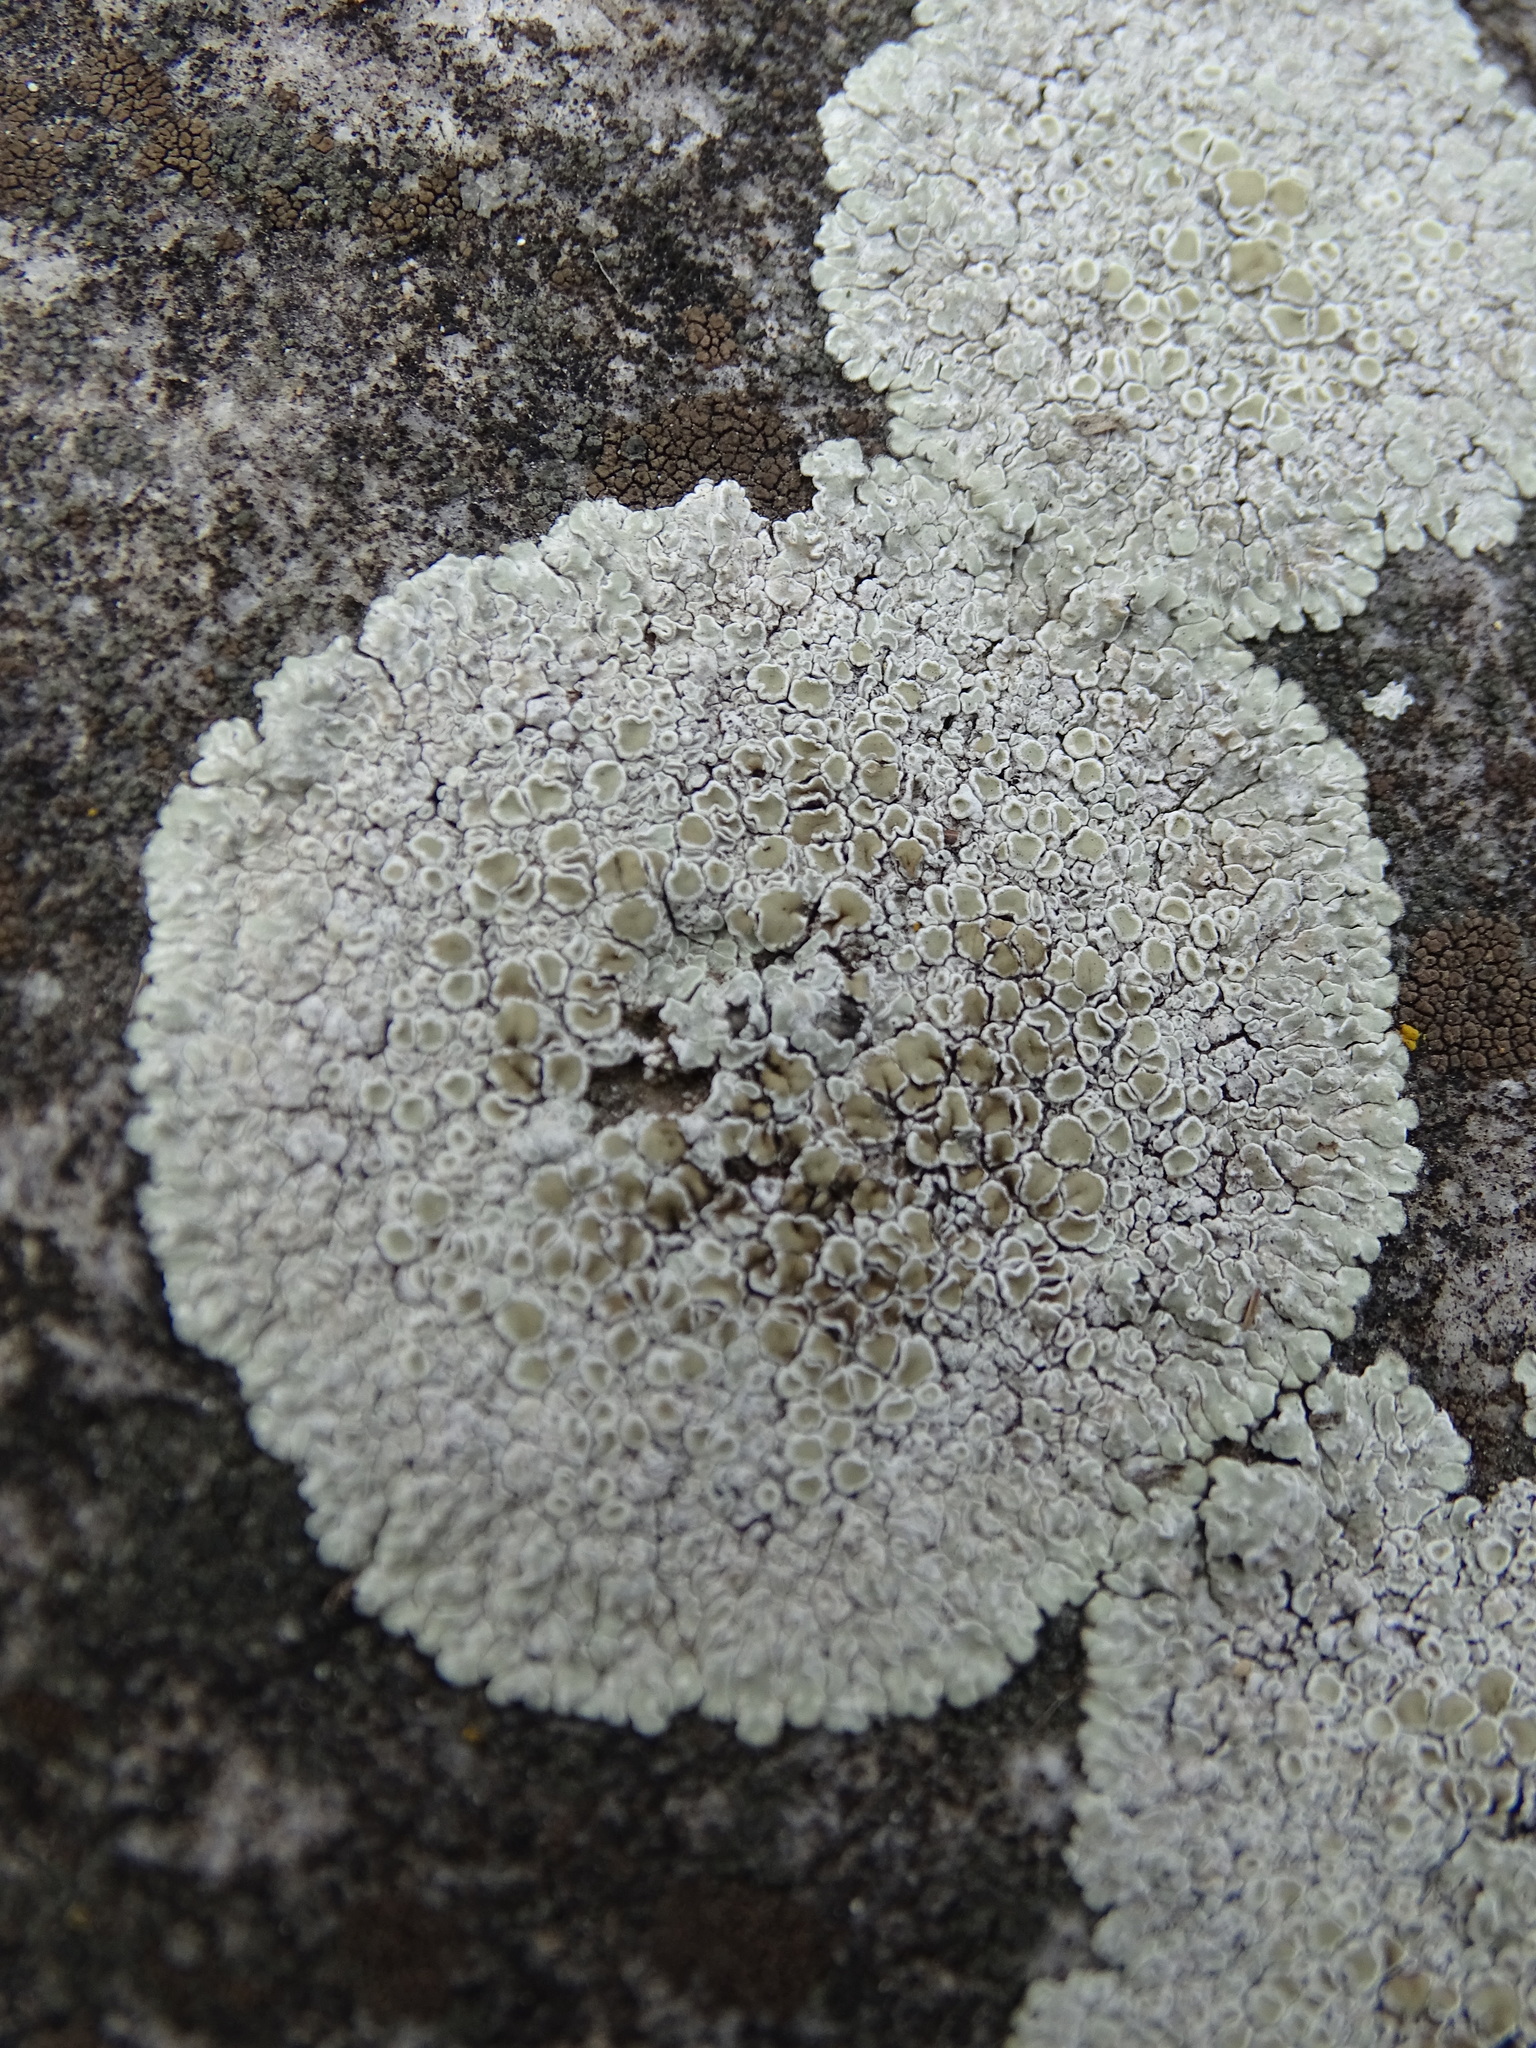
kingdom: Fungi
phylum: Ascomycota
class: Lecanoromycetes
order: Lecanorales
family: Lecanoraceae
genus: Protoparmeliopsis
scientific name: Protoparmeliopsis muralis
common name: Stonewall rim lichen
